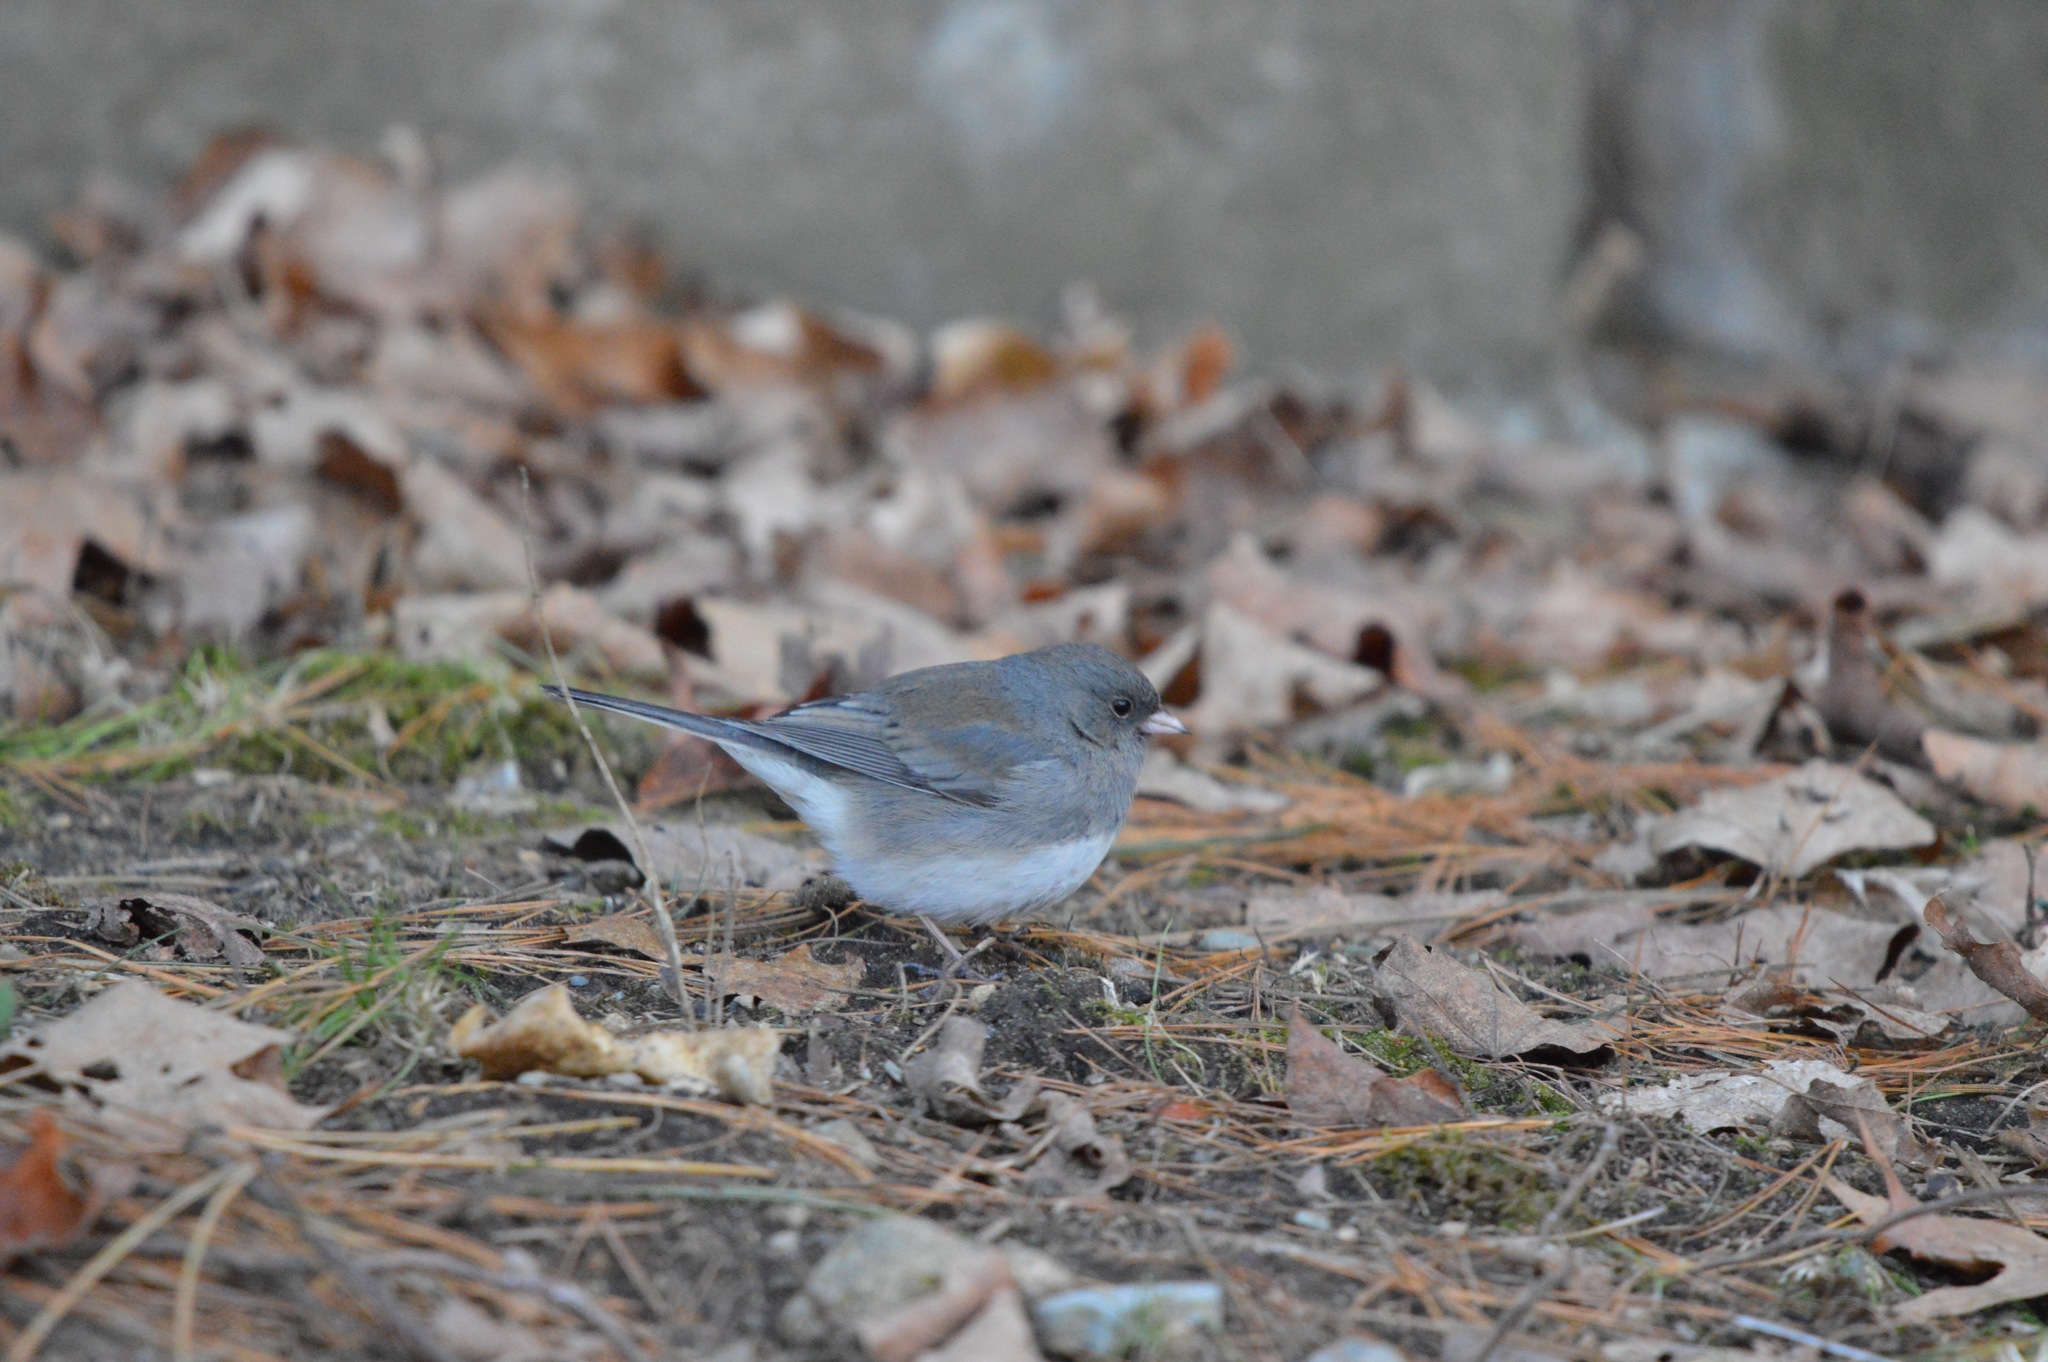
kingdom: Animalia
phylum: Chordata
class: Aves
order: Passeriformes
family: Passerellidae
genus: Junco
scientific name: Junco hyemalis
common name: Dark-eyed junco
